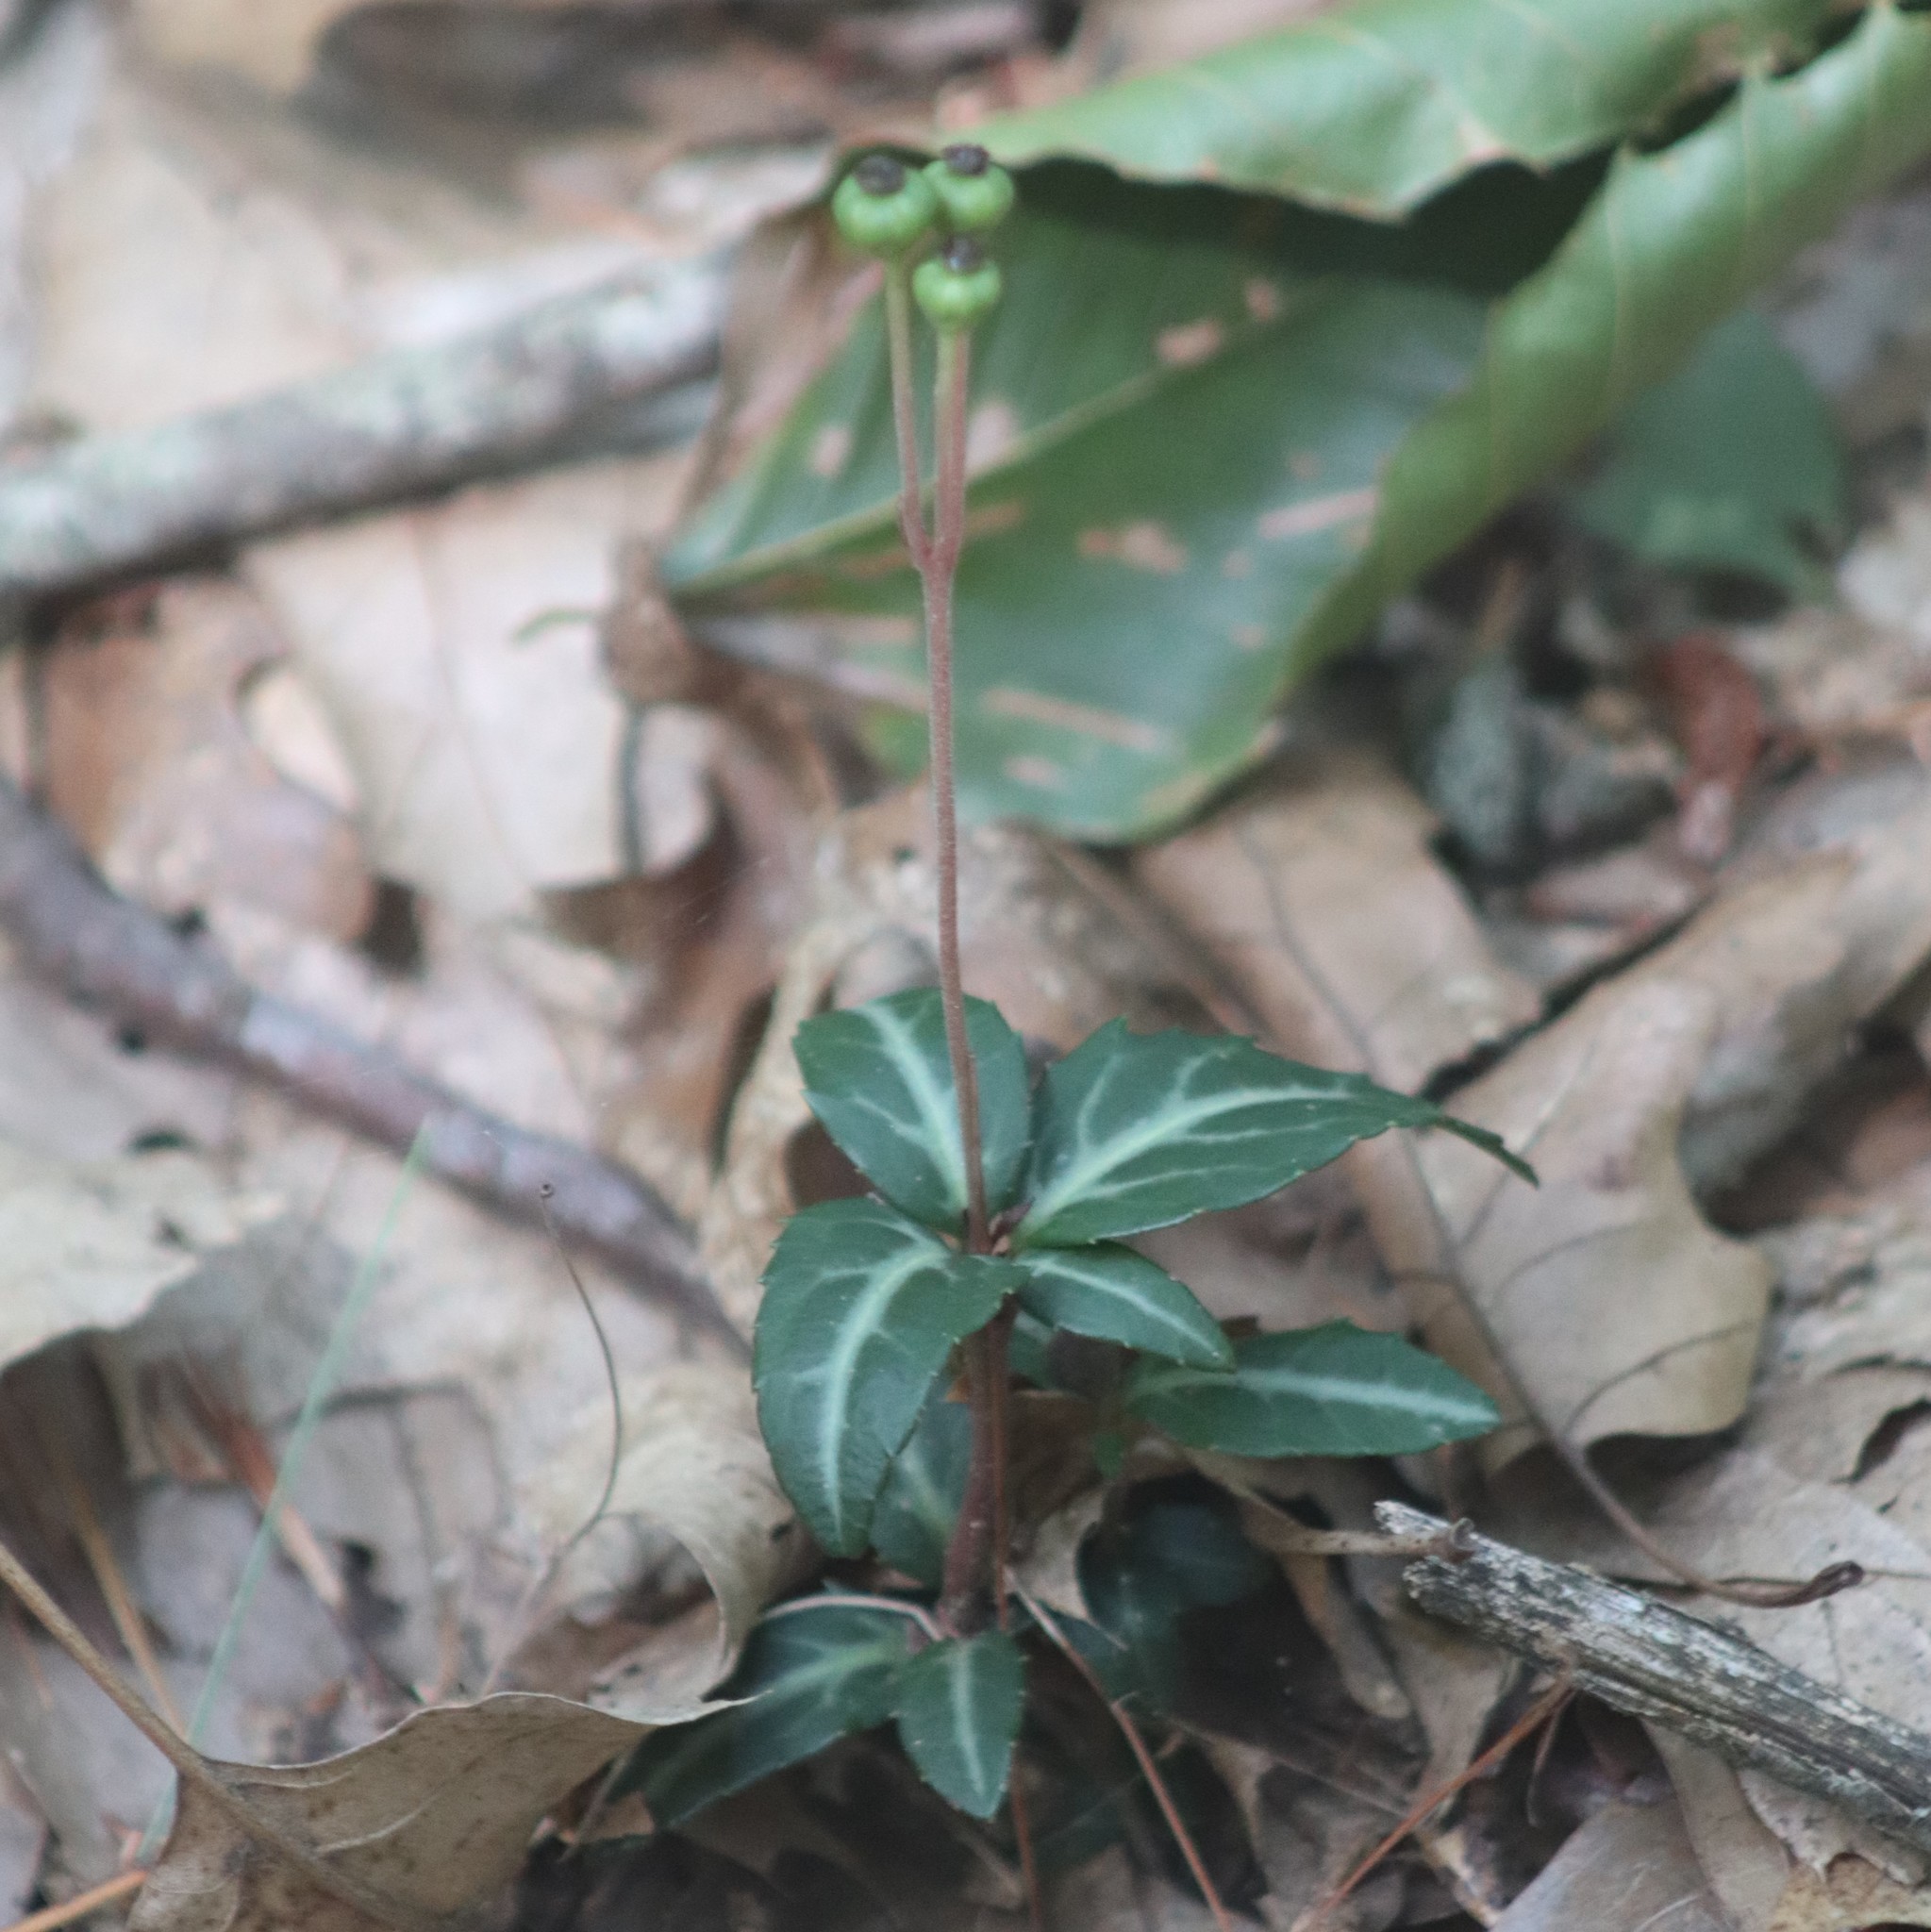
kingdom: Plantae
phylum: Tracheophyta
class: Magnoliopsida
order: Ericales
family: Ericaceae
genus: Chimaphila
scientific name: Chimaphila maculata
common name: Spotted pipsissewa
